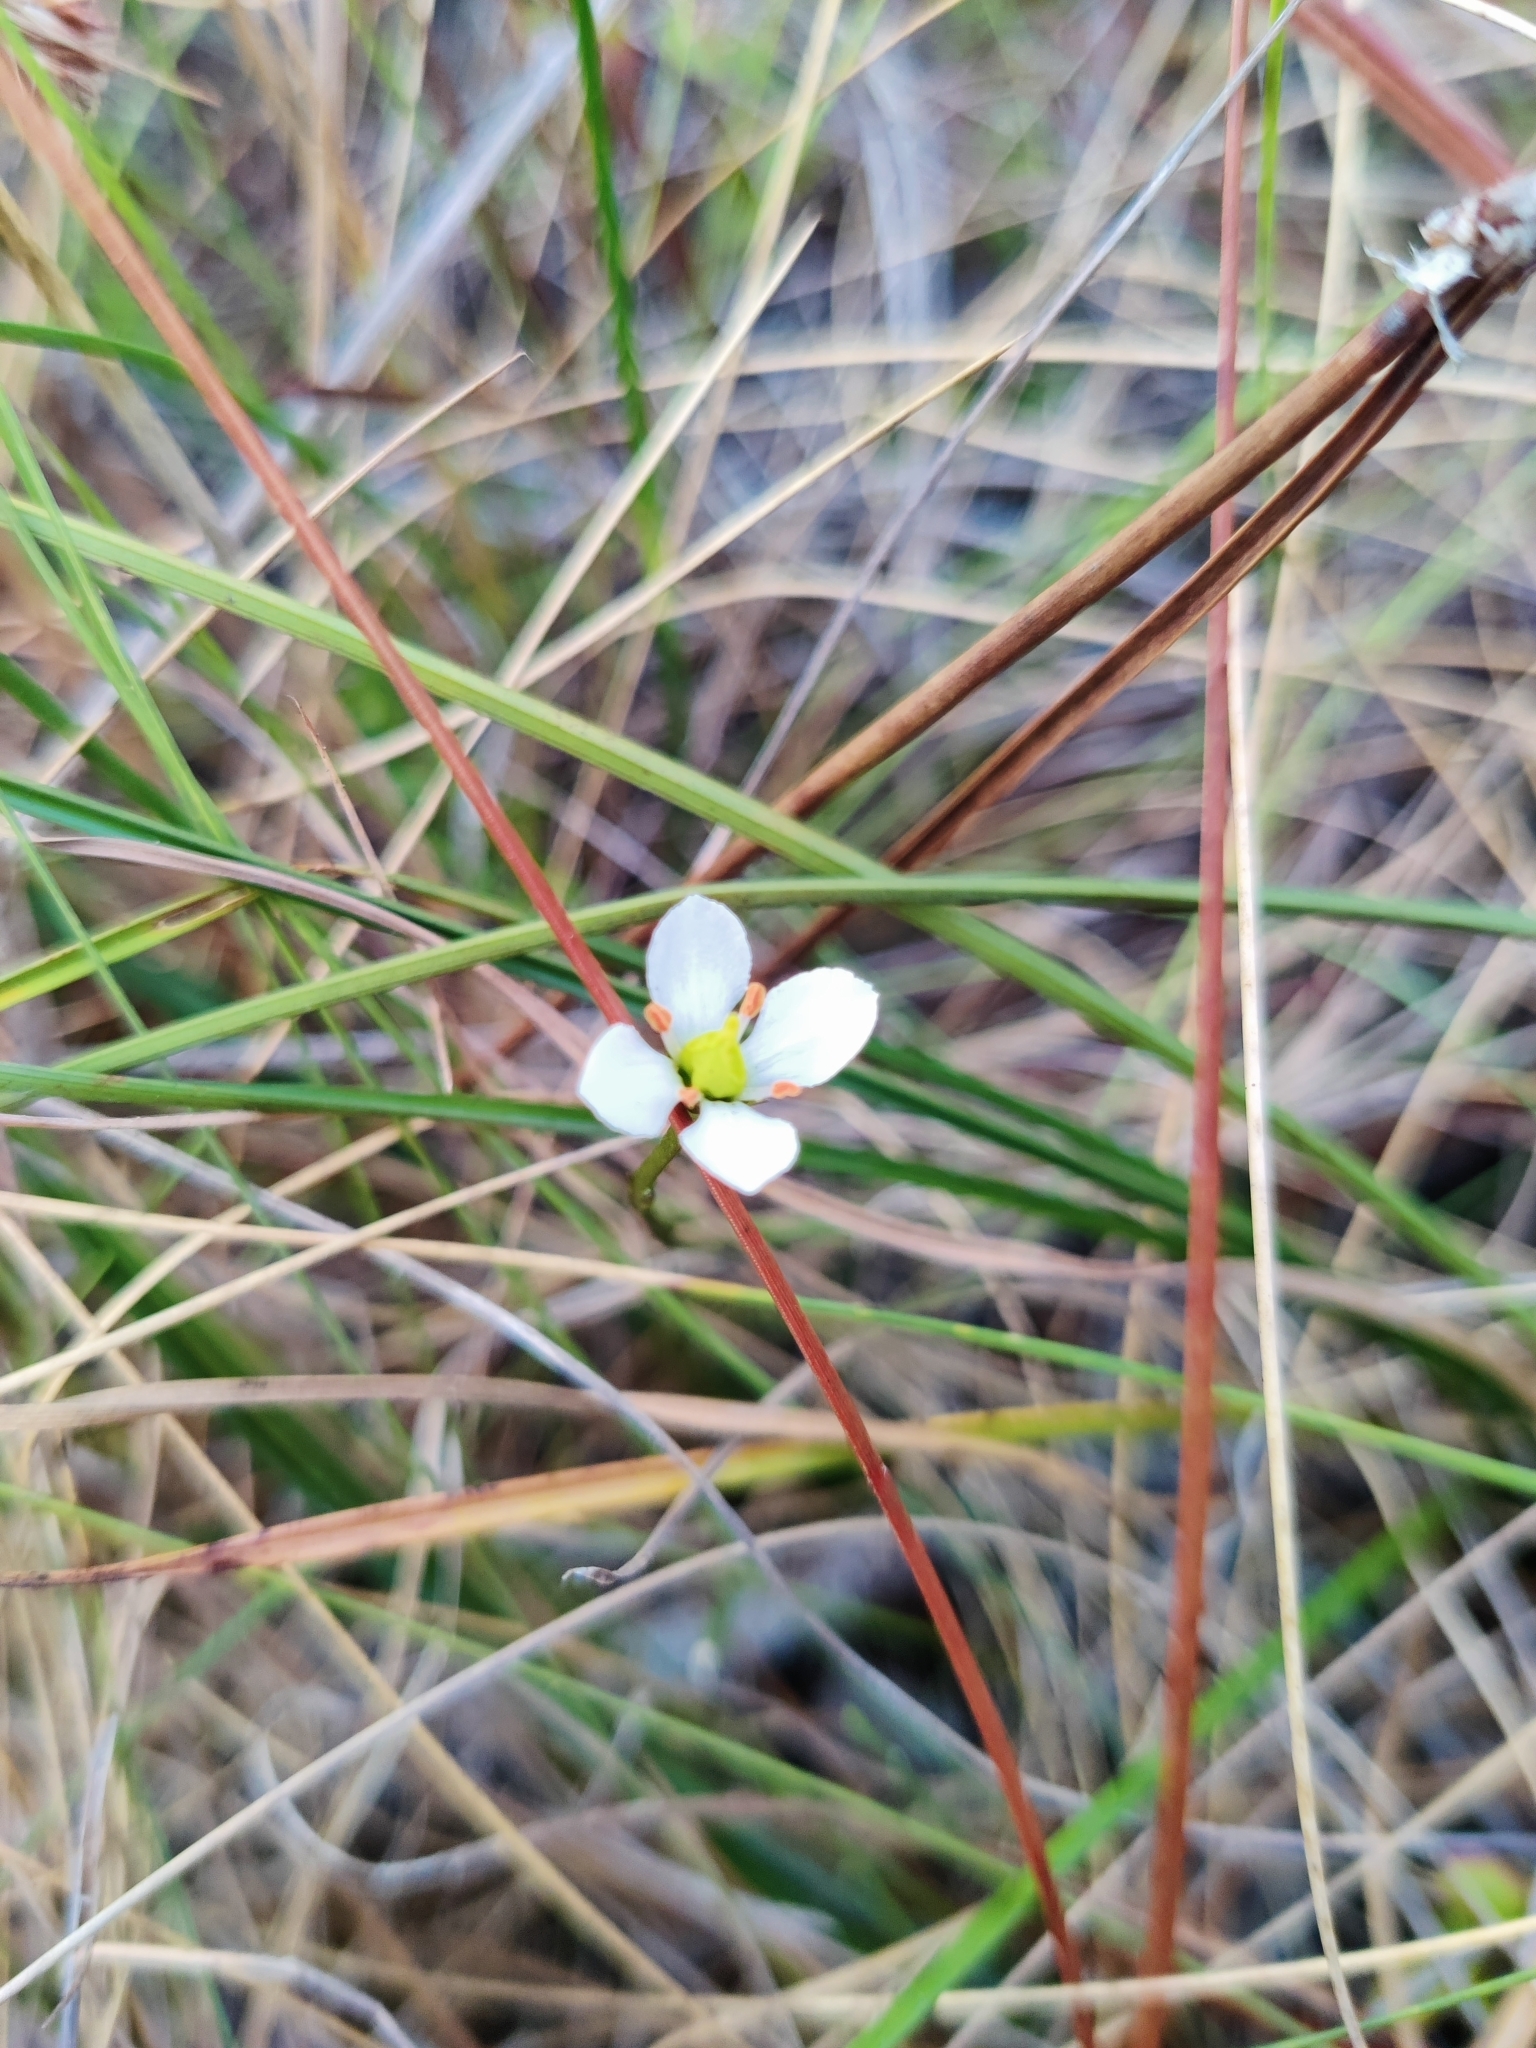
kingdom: Plantae
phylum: Tracheophyta
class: Magnoliopsida
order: Gentianales
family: Gentianaceae
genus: Bartonia
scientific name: Bartonia verna
